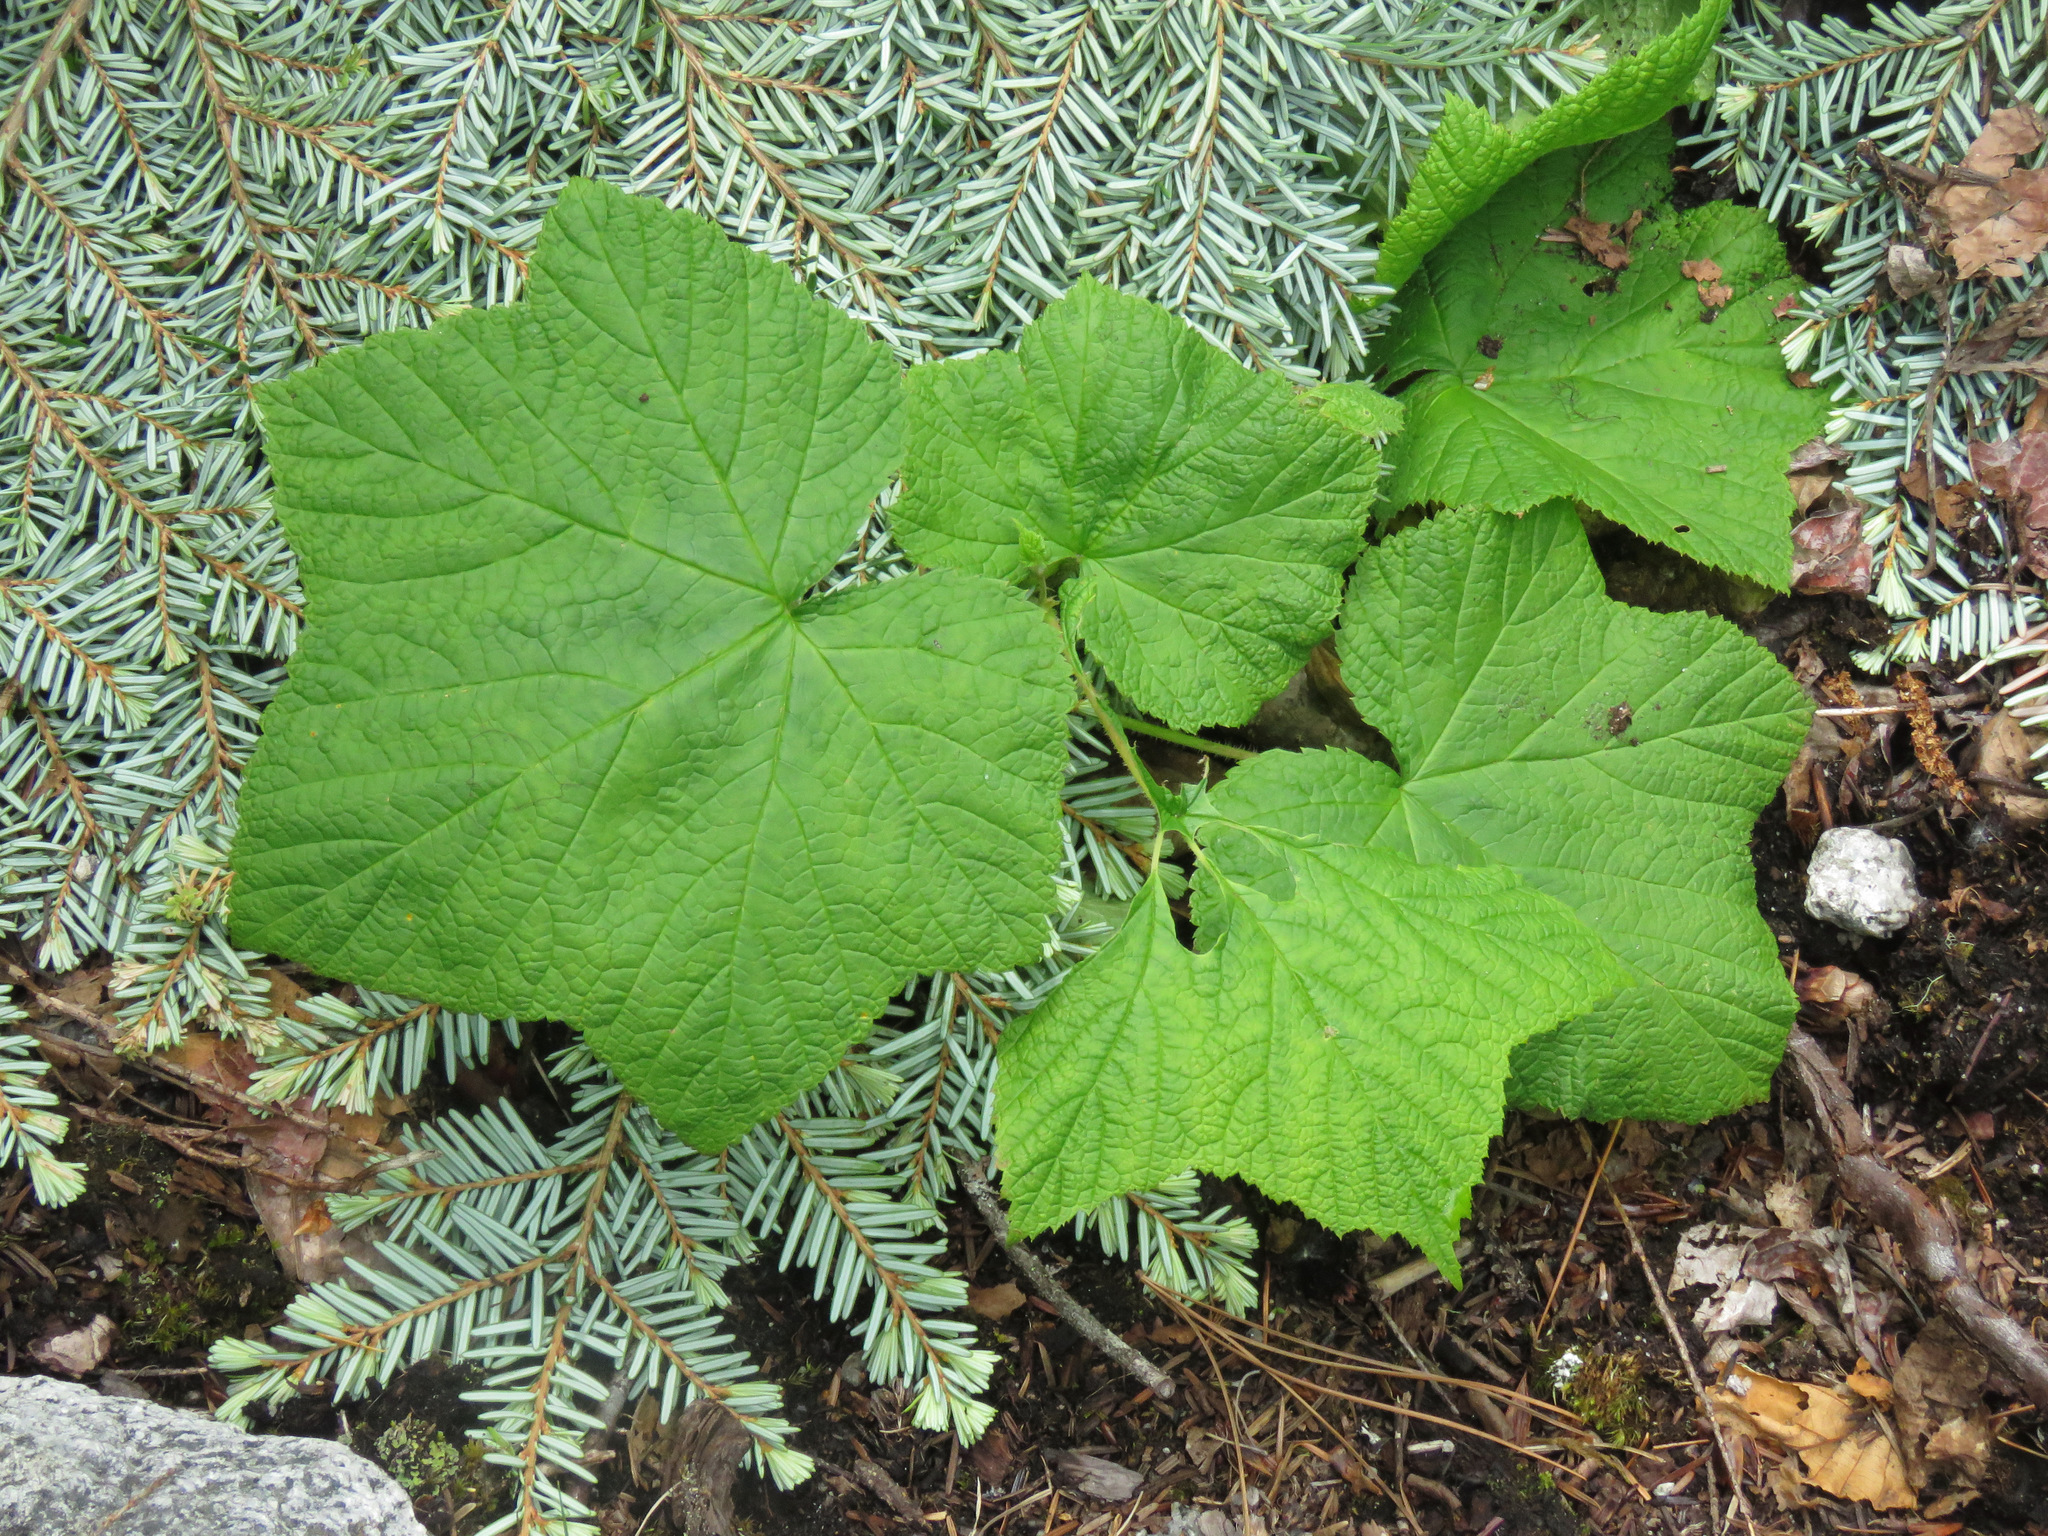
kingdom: Plantae
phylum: Tracheophyta
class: Magnoliopsida
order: Rosales
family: Rosaceae
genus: Rubus
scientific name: Rubus parviflorus
